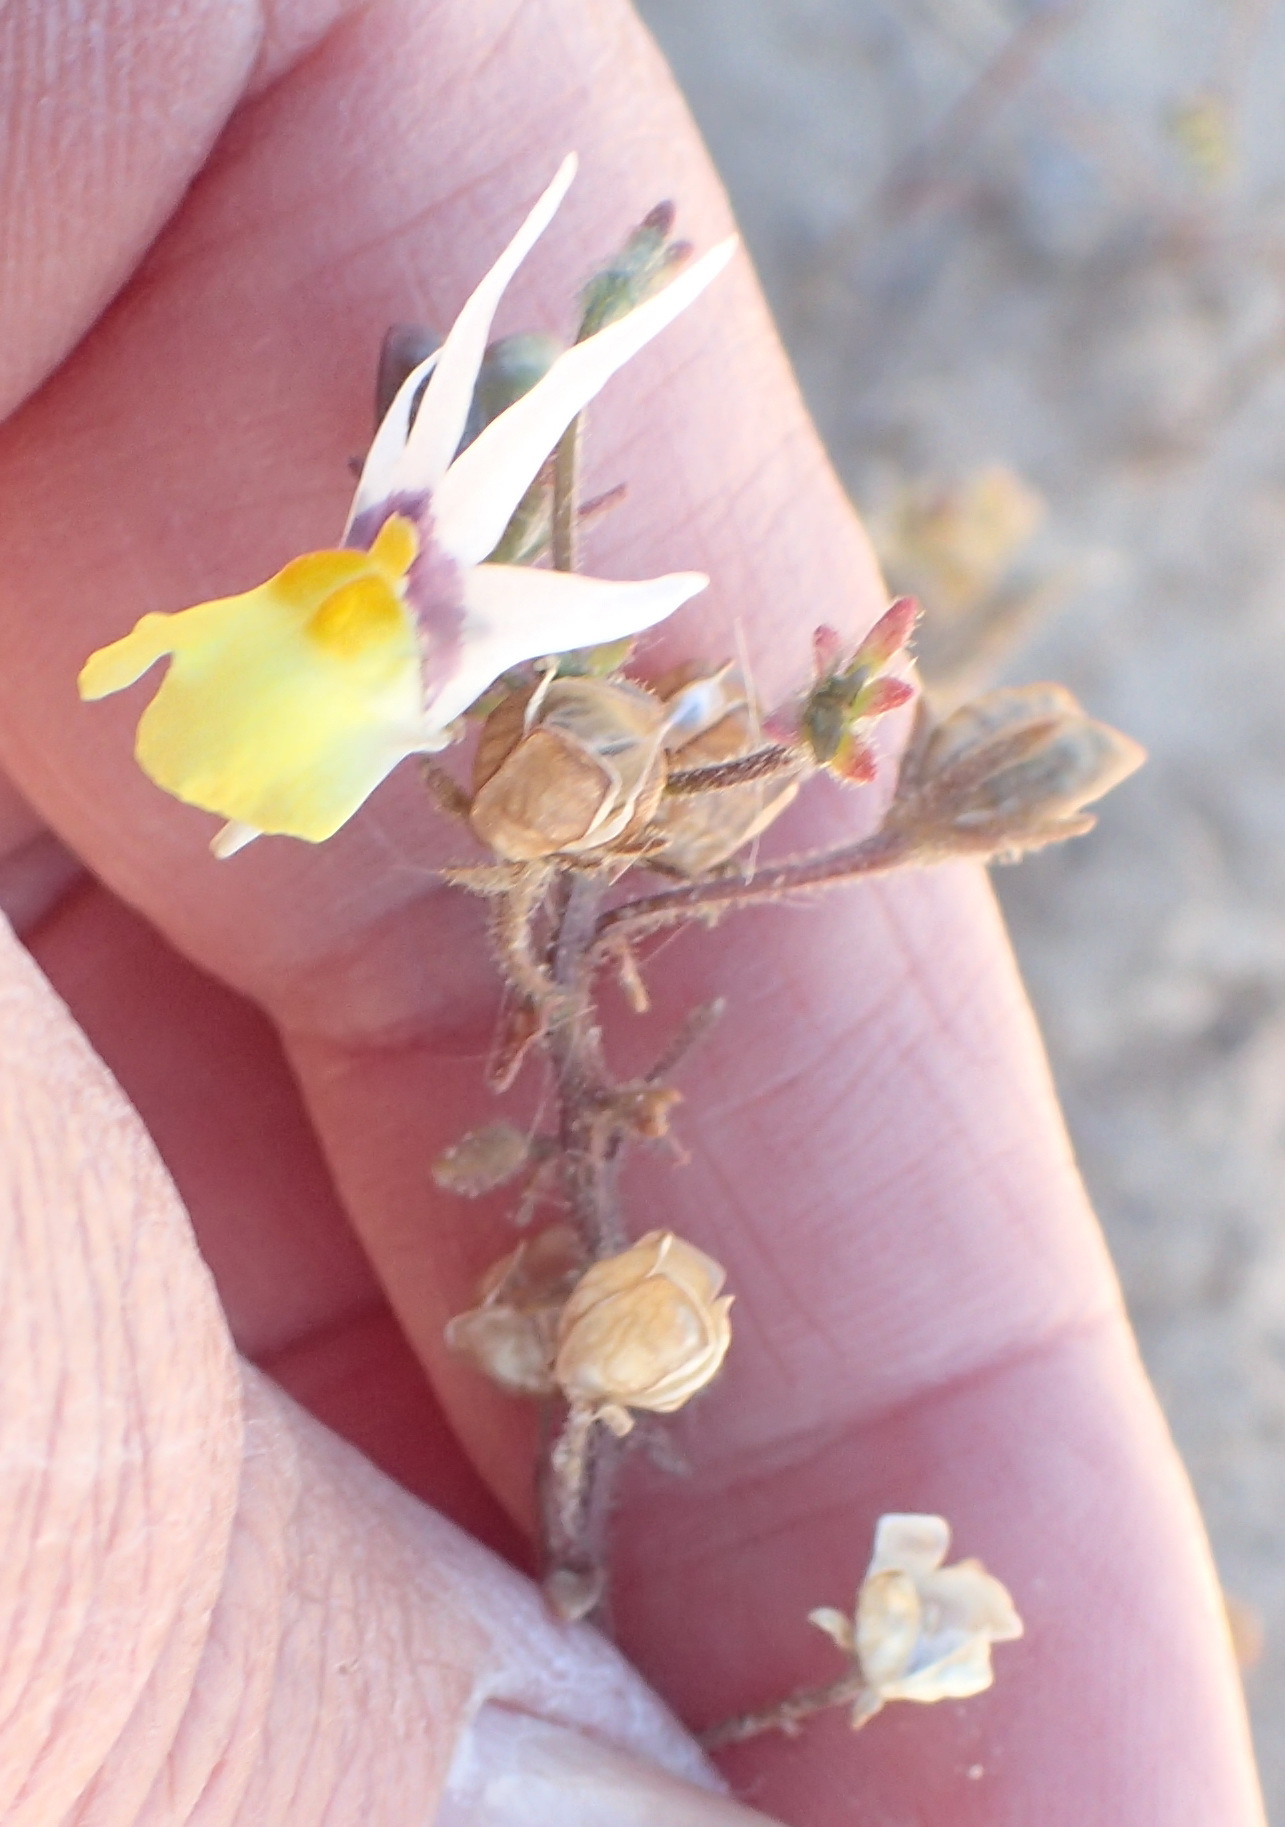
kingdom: Plantae
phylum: Tracheophyta
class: Magnoliopsida
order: Lamiales
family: Scrophulariaceae
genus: Nemesia
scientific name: Nemesia cheiranthus
